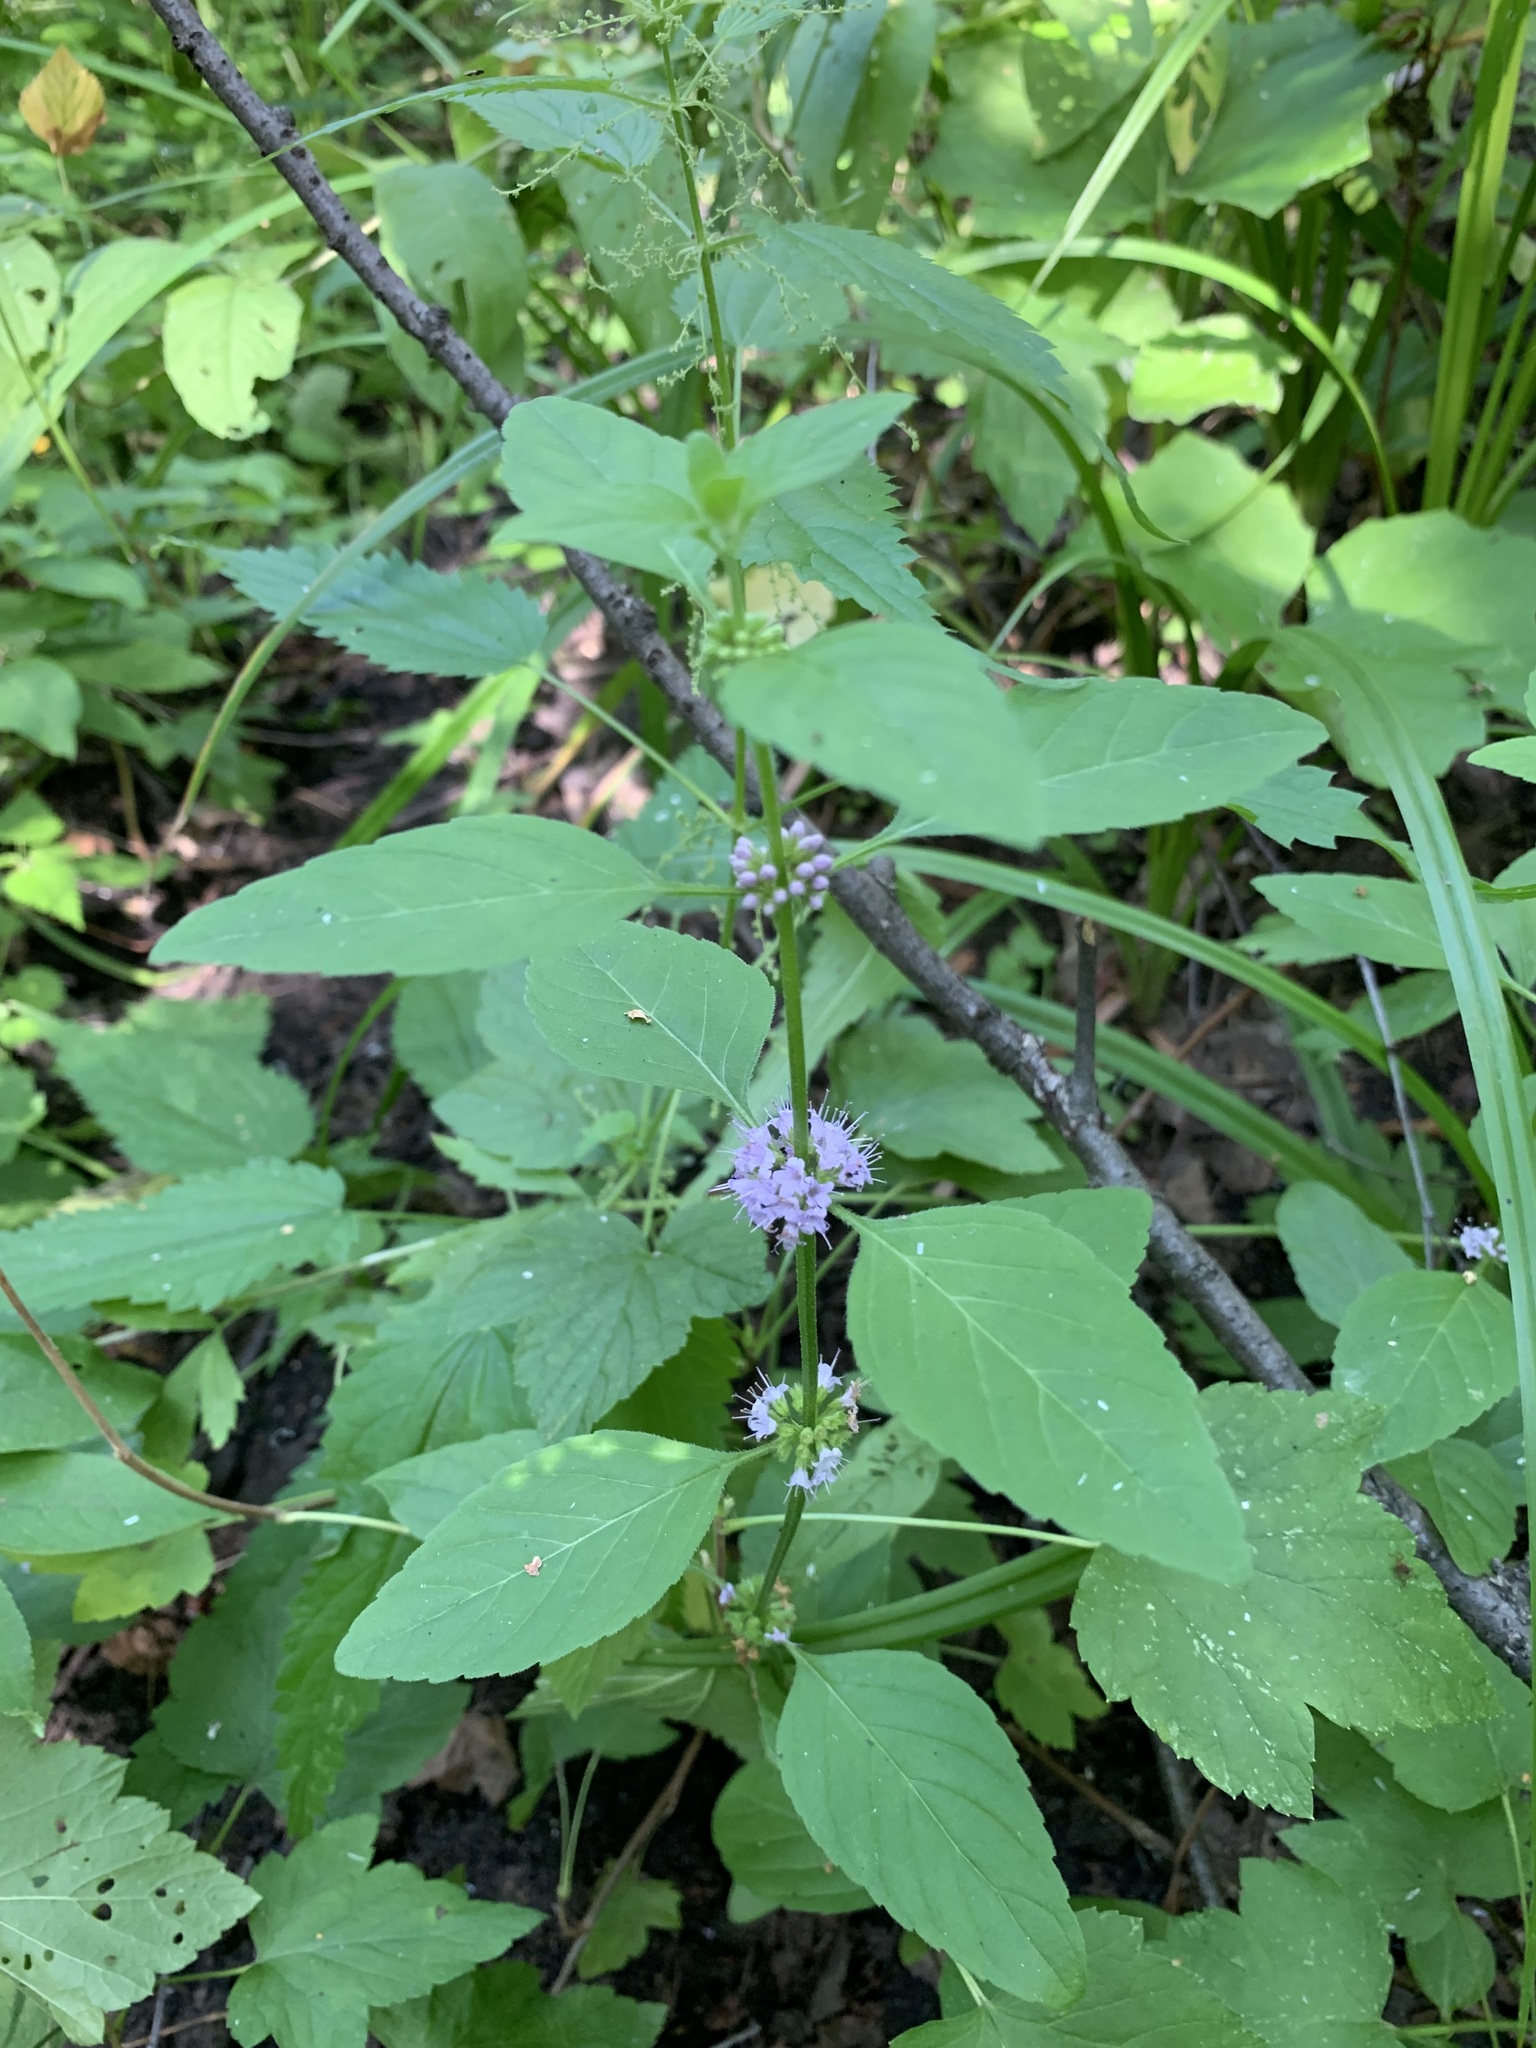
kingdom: Plantae
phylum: Tracheophyta
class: Magnoliopsida
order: Lamiales
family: Lamiaceae
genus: Mentha
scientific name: Mentha arvensis
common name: Corn mint
